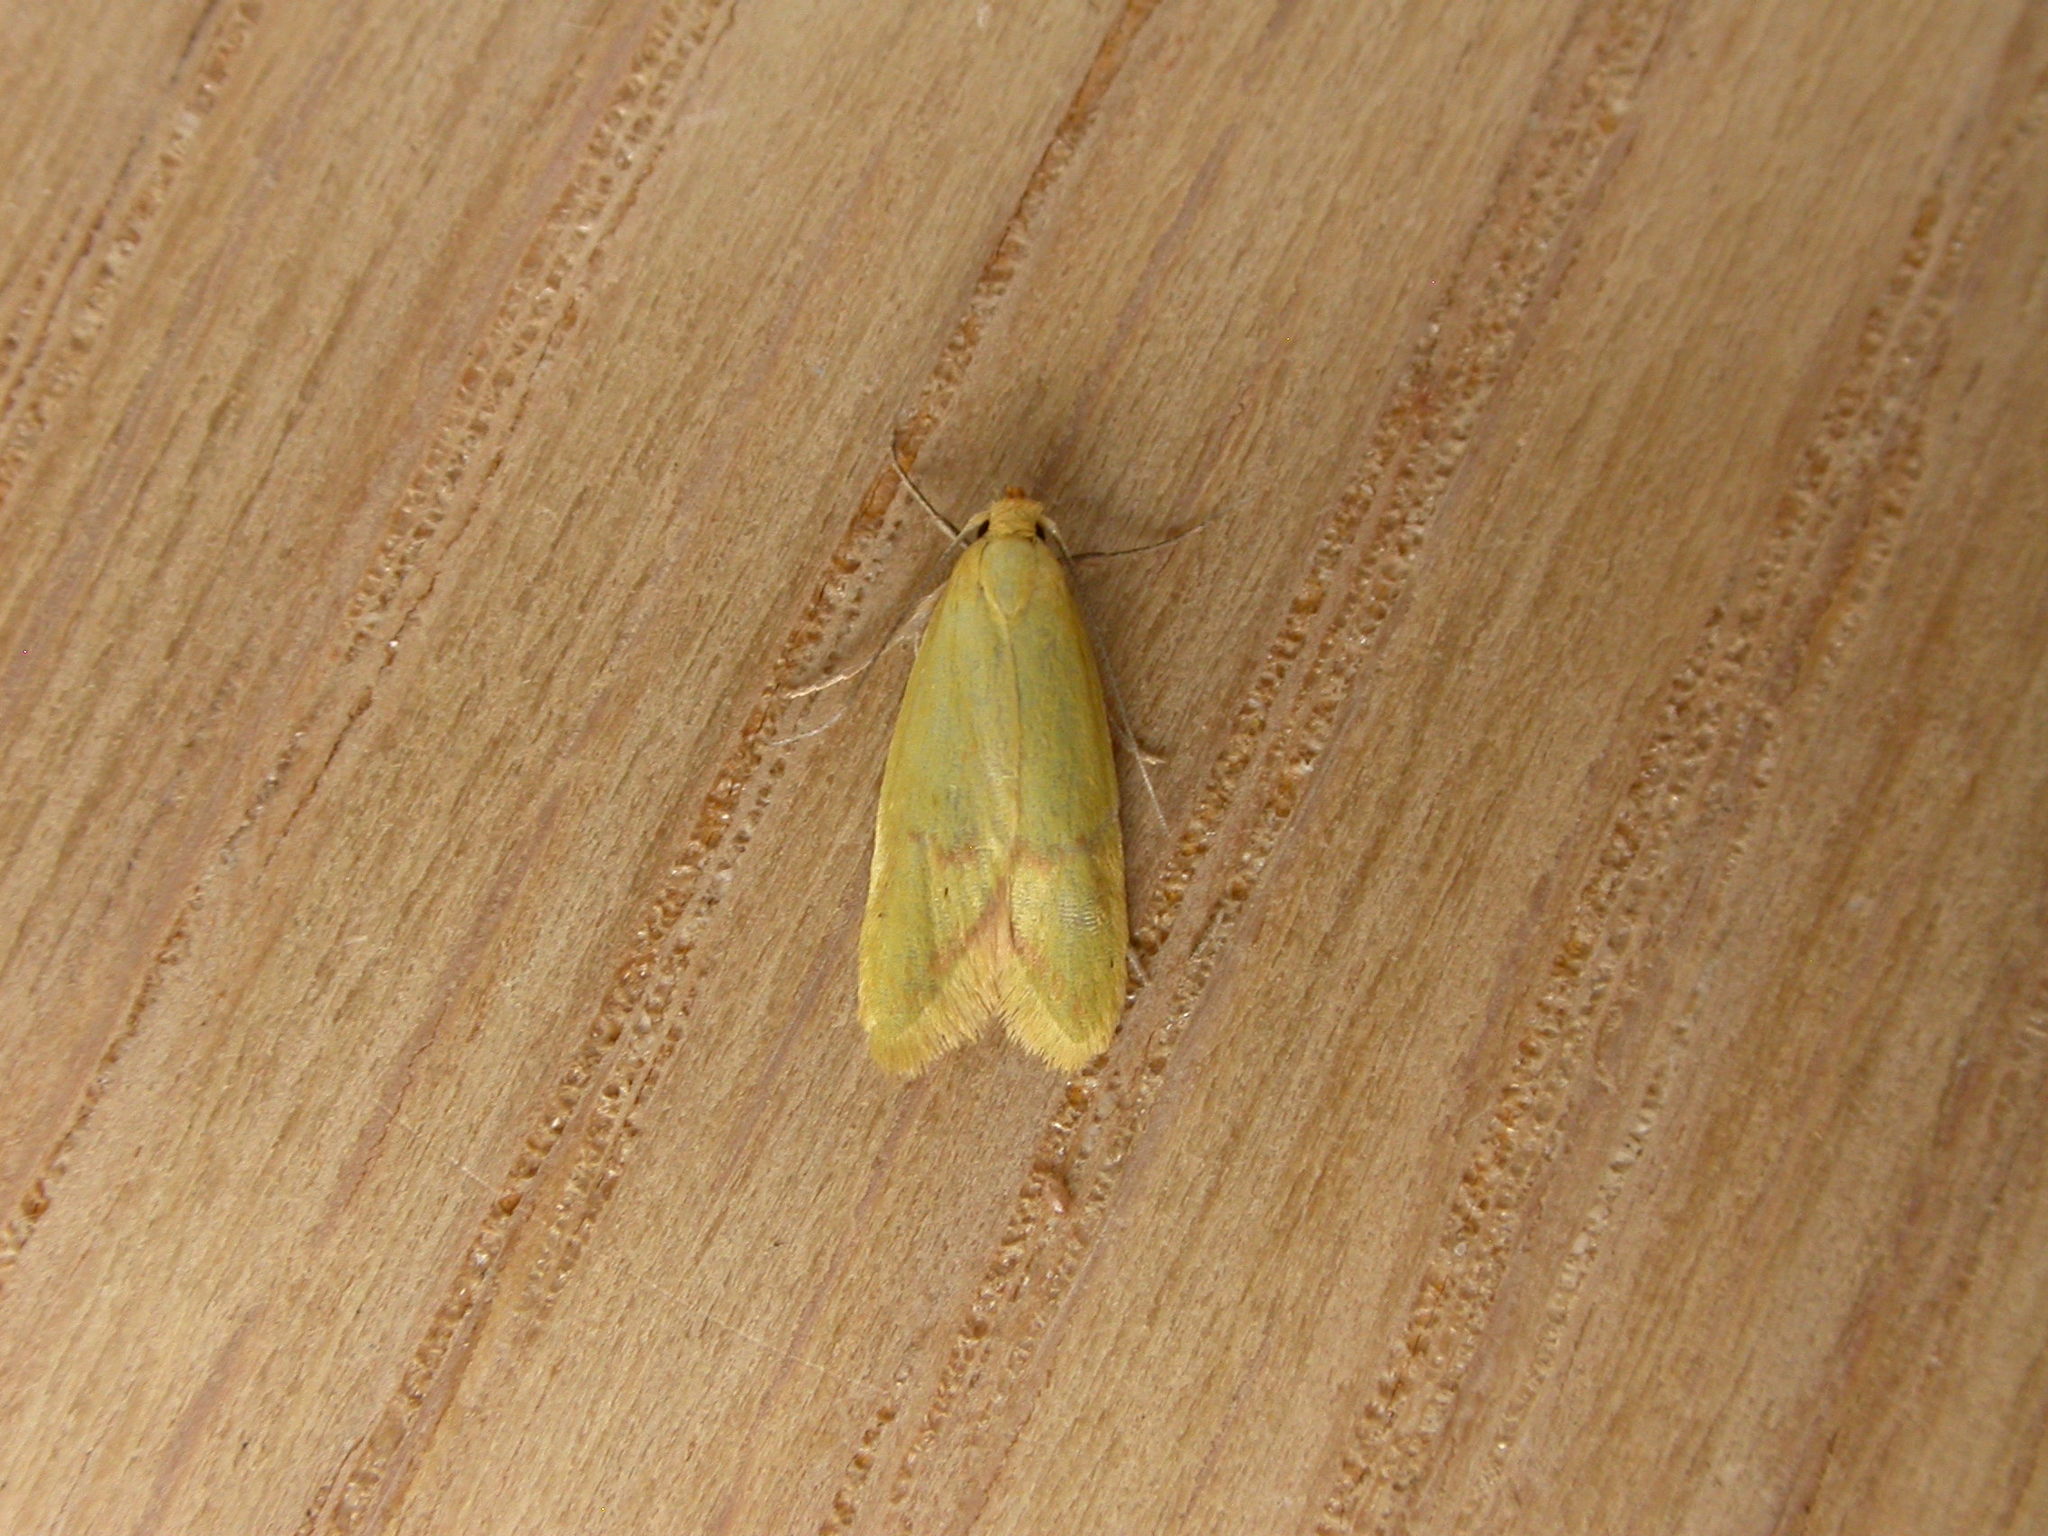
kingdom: Animalia
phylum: Arthropoda
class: Insecta
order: Lepidoptera
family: Oecophoridae
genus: Aeolothapsa
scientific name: Aeolothapsa malacella
